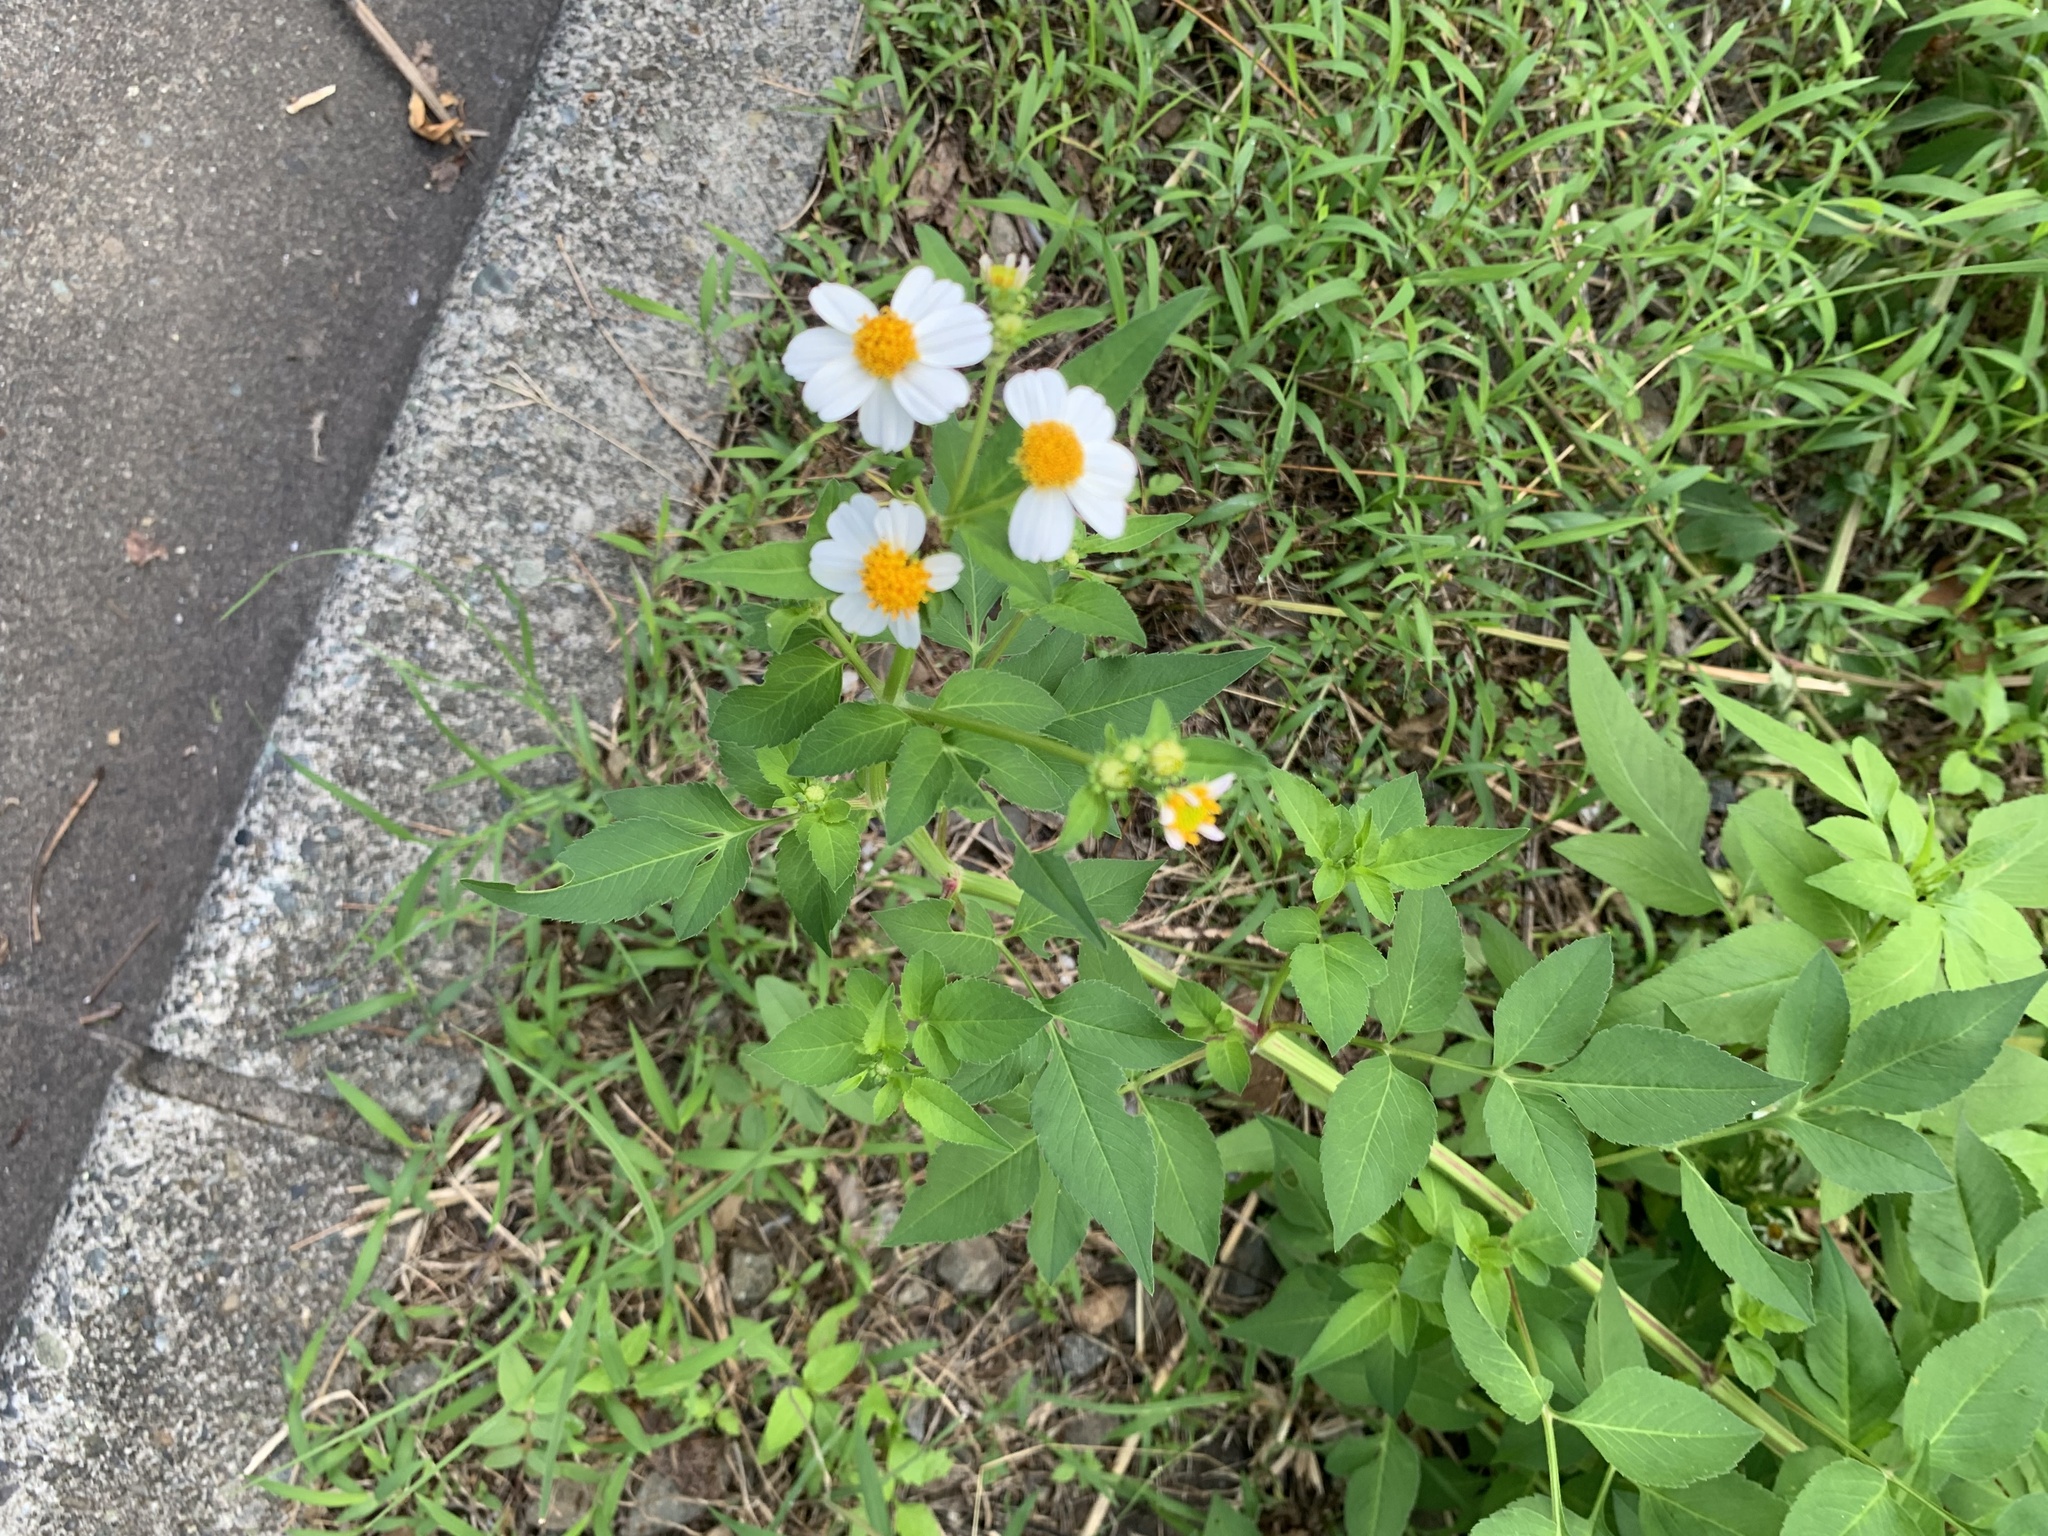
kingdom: Plantae
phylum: Tracheophyta
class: Magnoliopsida
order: Asterales
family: Asteraceae
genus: Bidens
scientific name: Bidens alba
